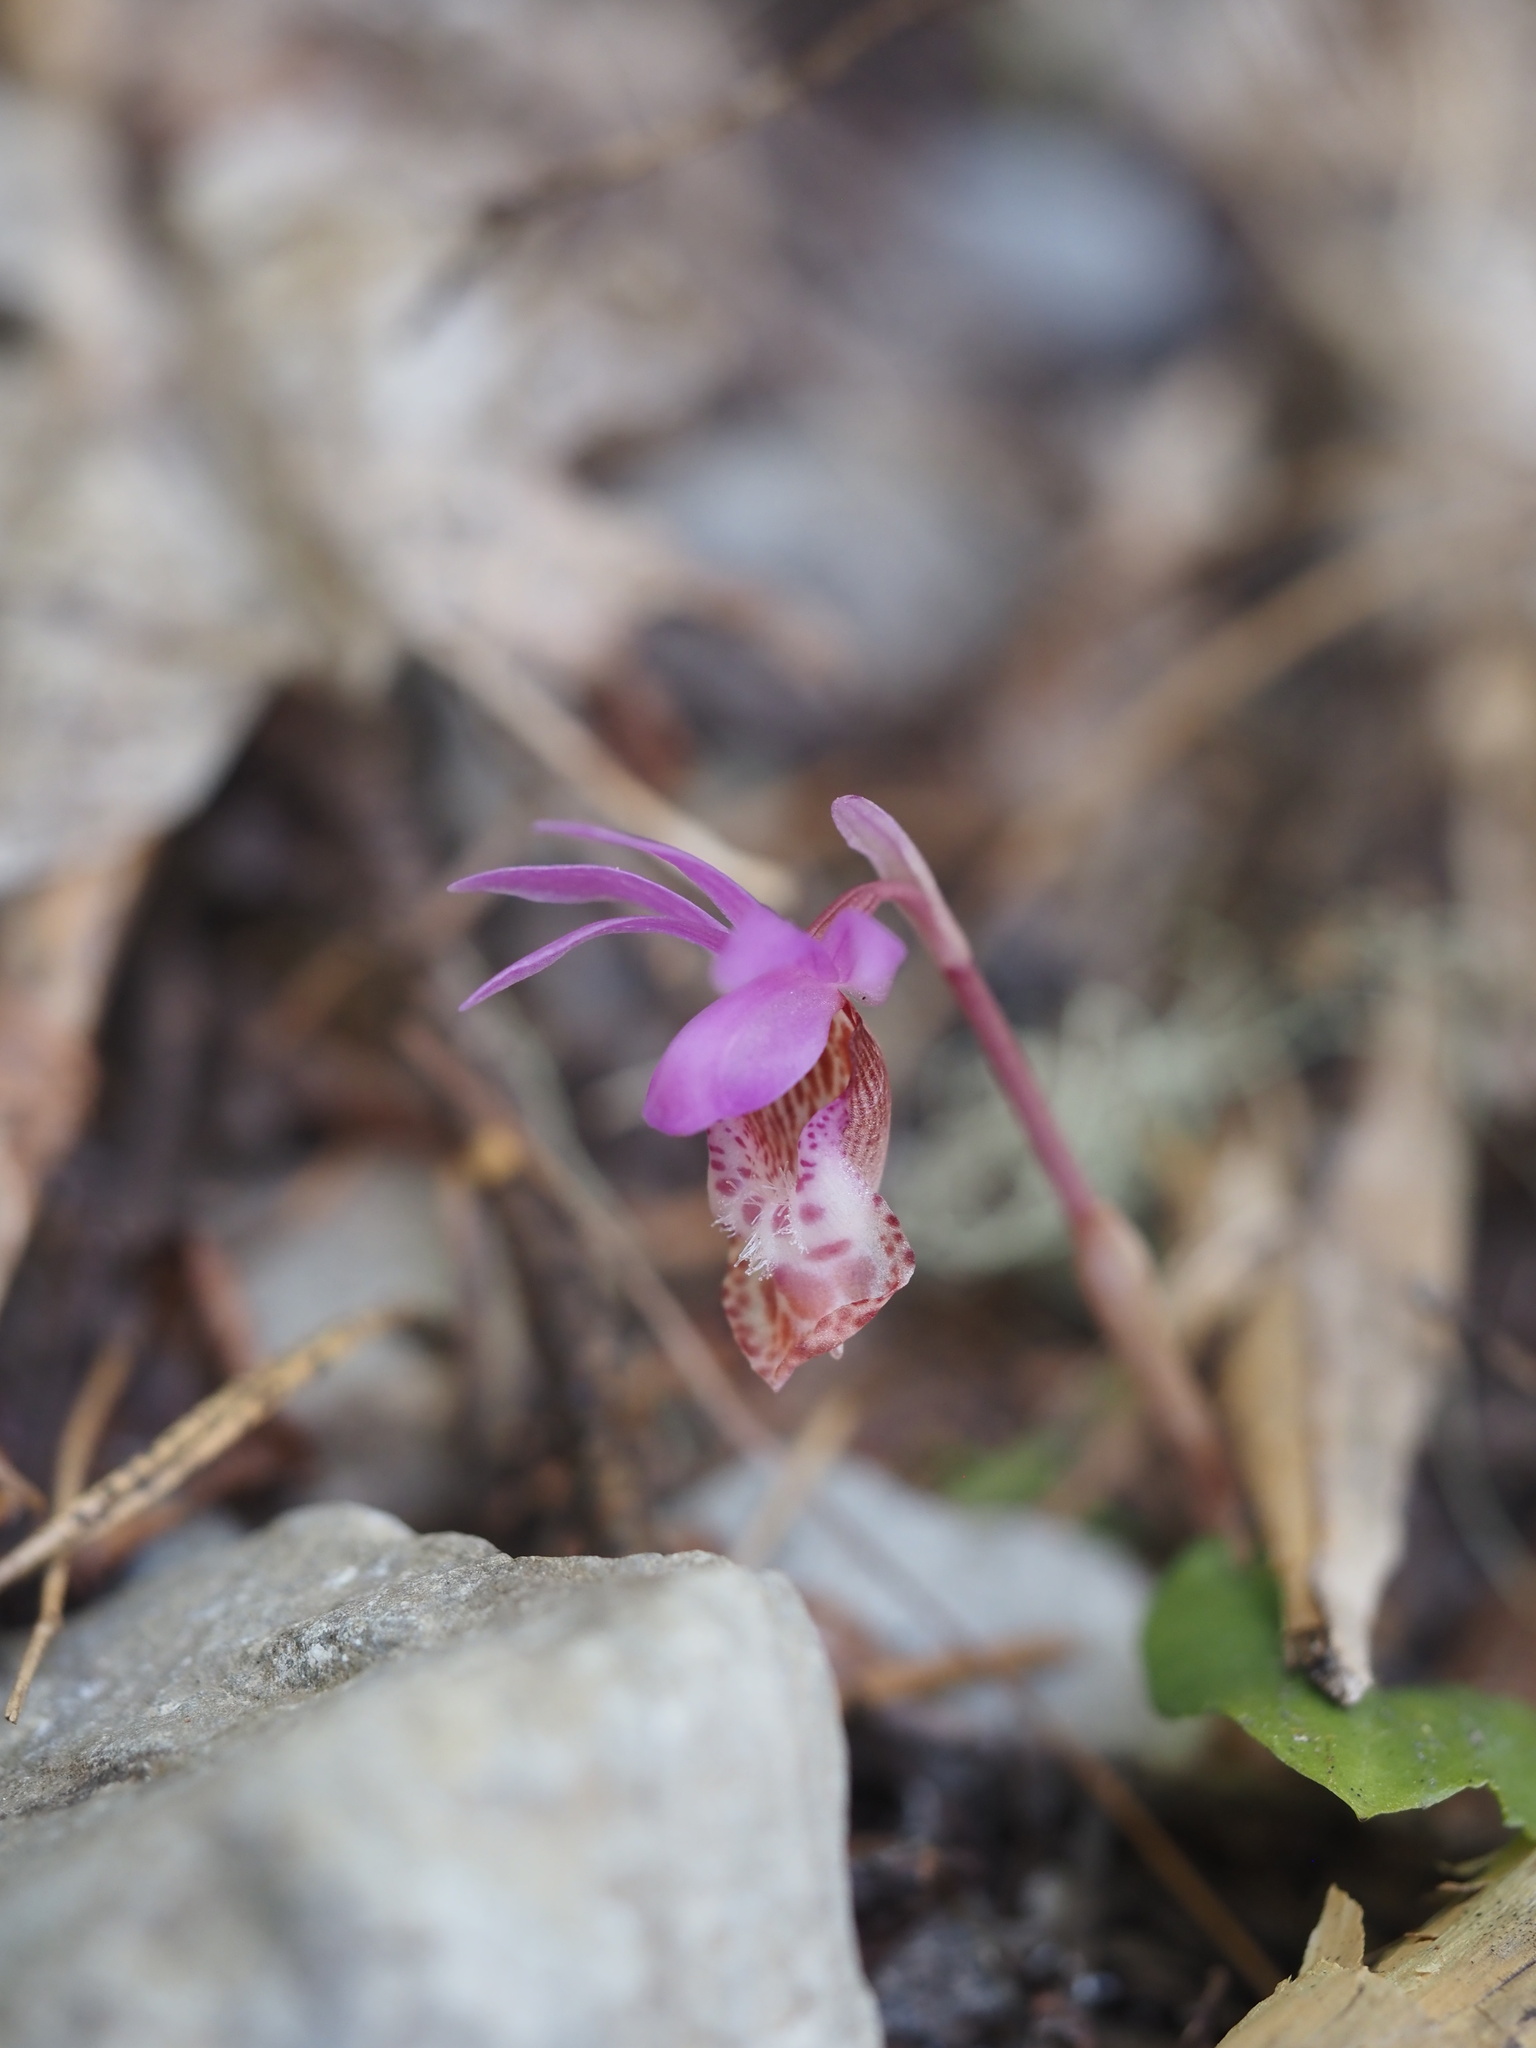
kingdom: Plantae
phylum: Tracheophyta
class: Liliopsida
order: Asparagales
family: Orchidaceae
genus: Calypso
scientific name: Calypso bulbosa
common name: Calypso
